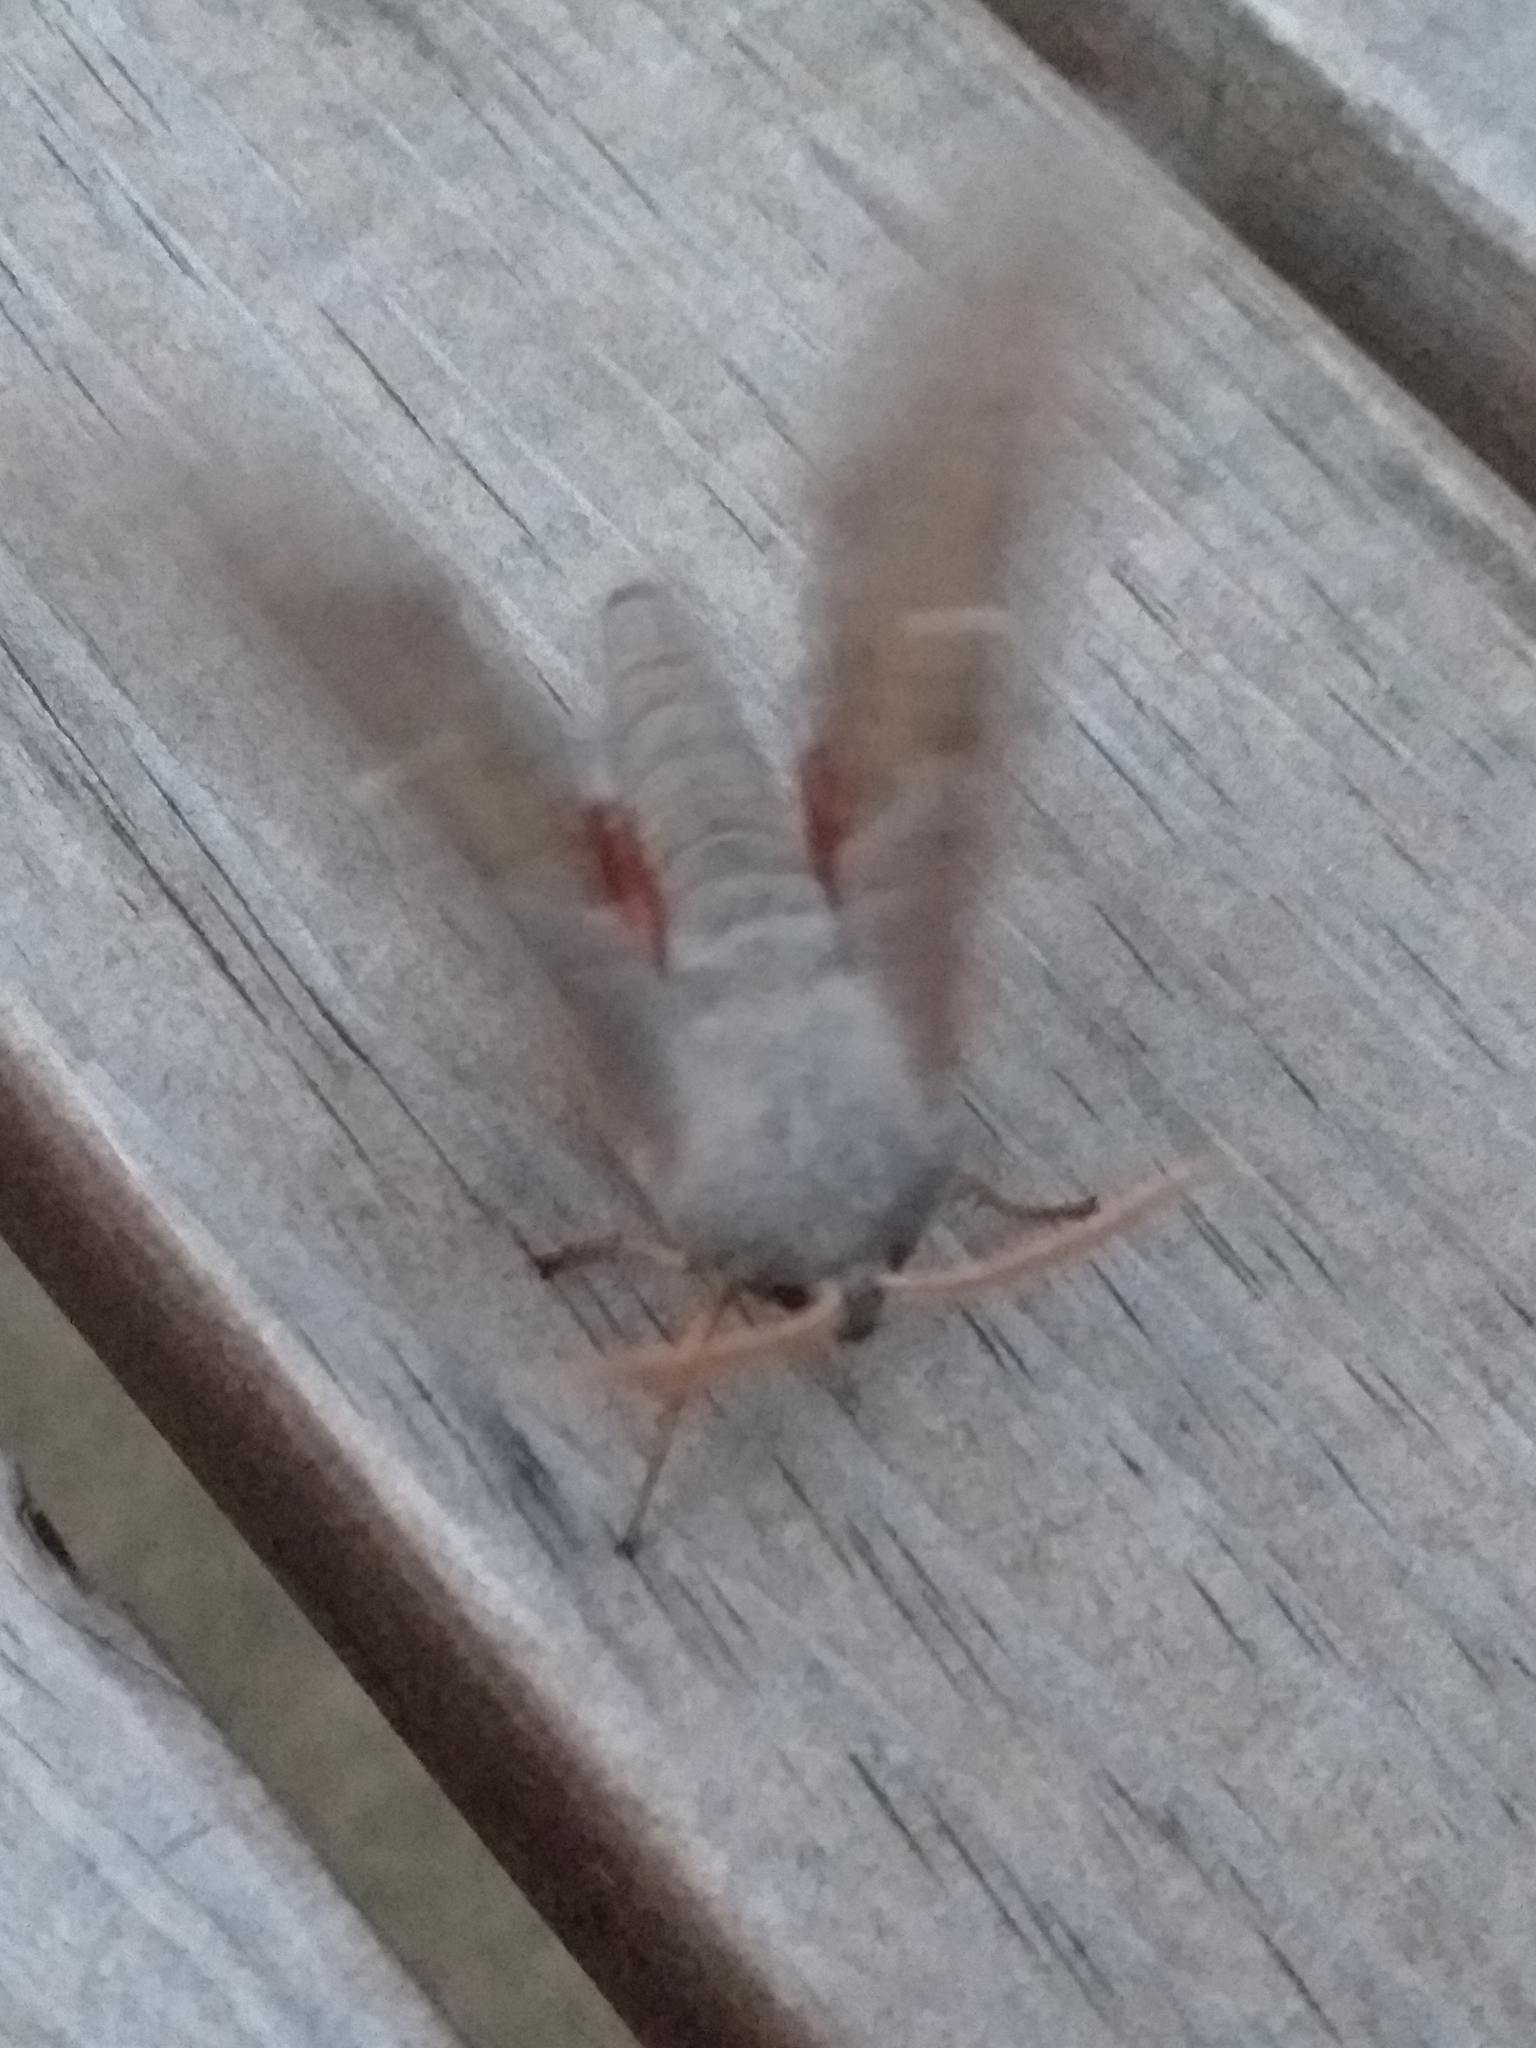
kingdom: Animalia
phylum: Arthropoda
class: Insecta
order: Lepidoptera
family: Sphingidae
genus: Laothoe
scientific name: Laothoe populi
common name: Poplar hawk-moth
